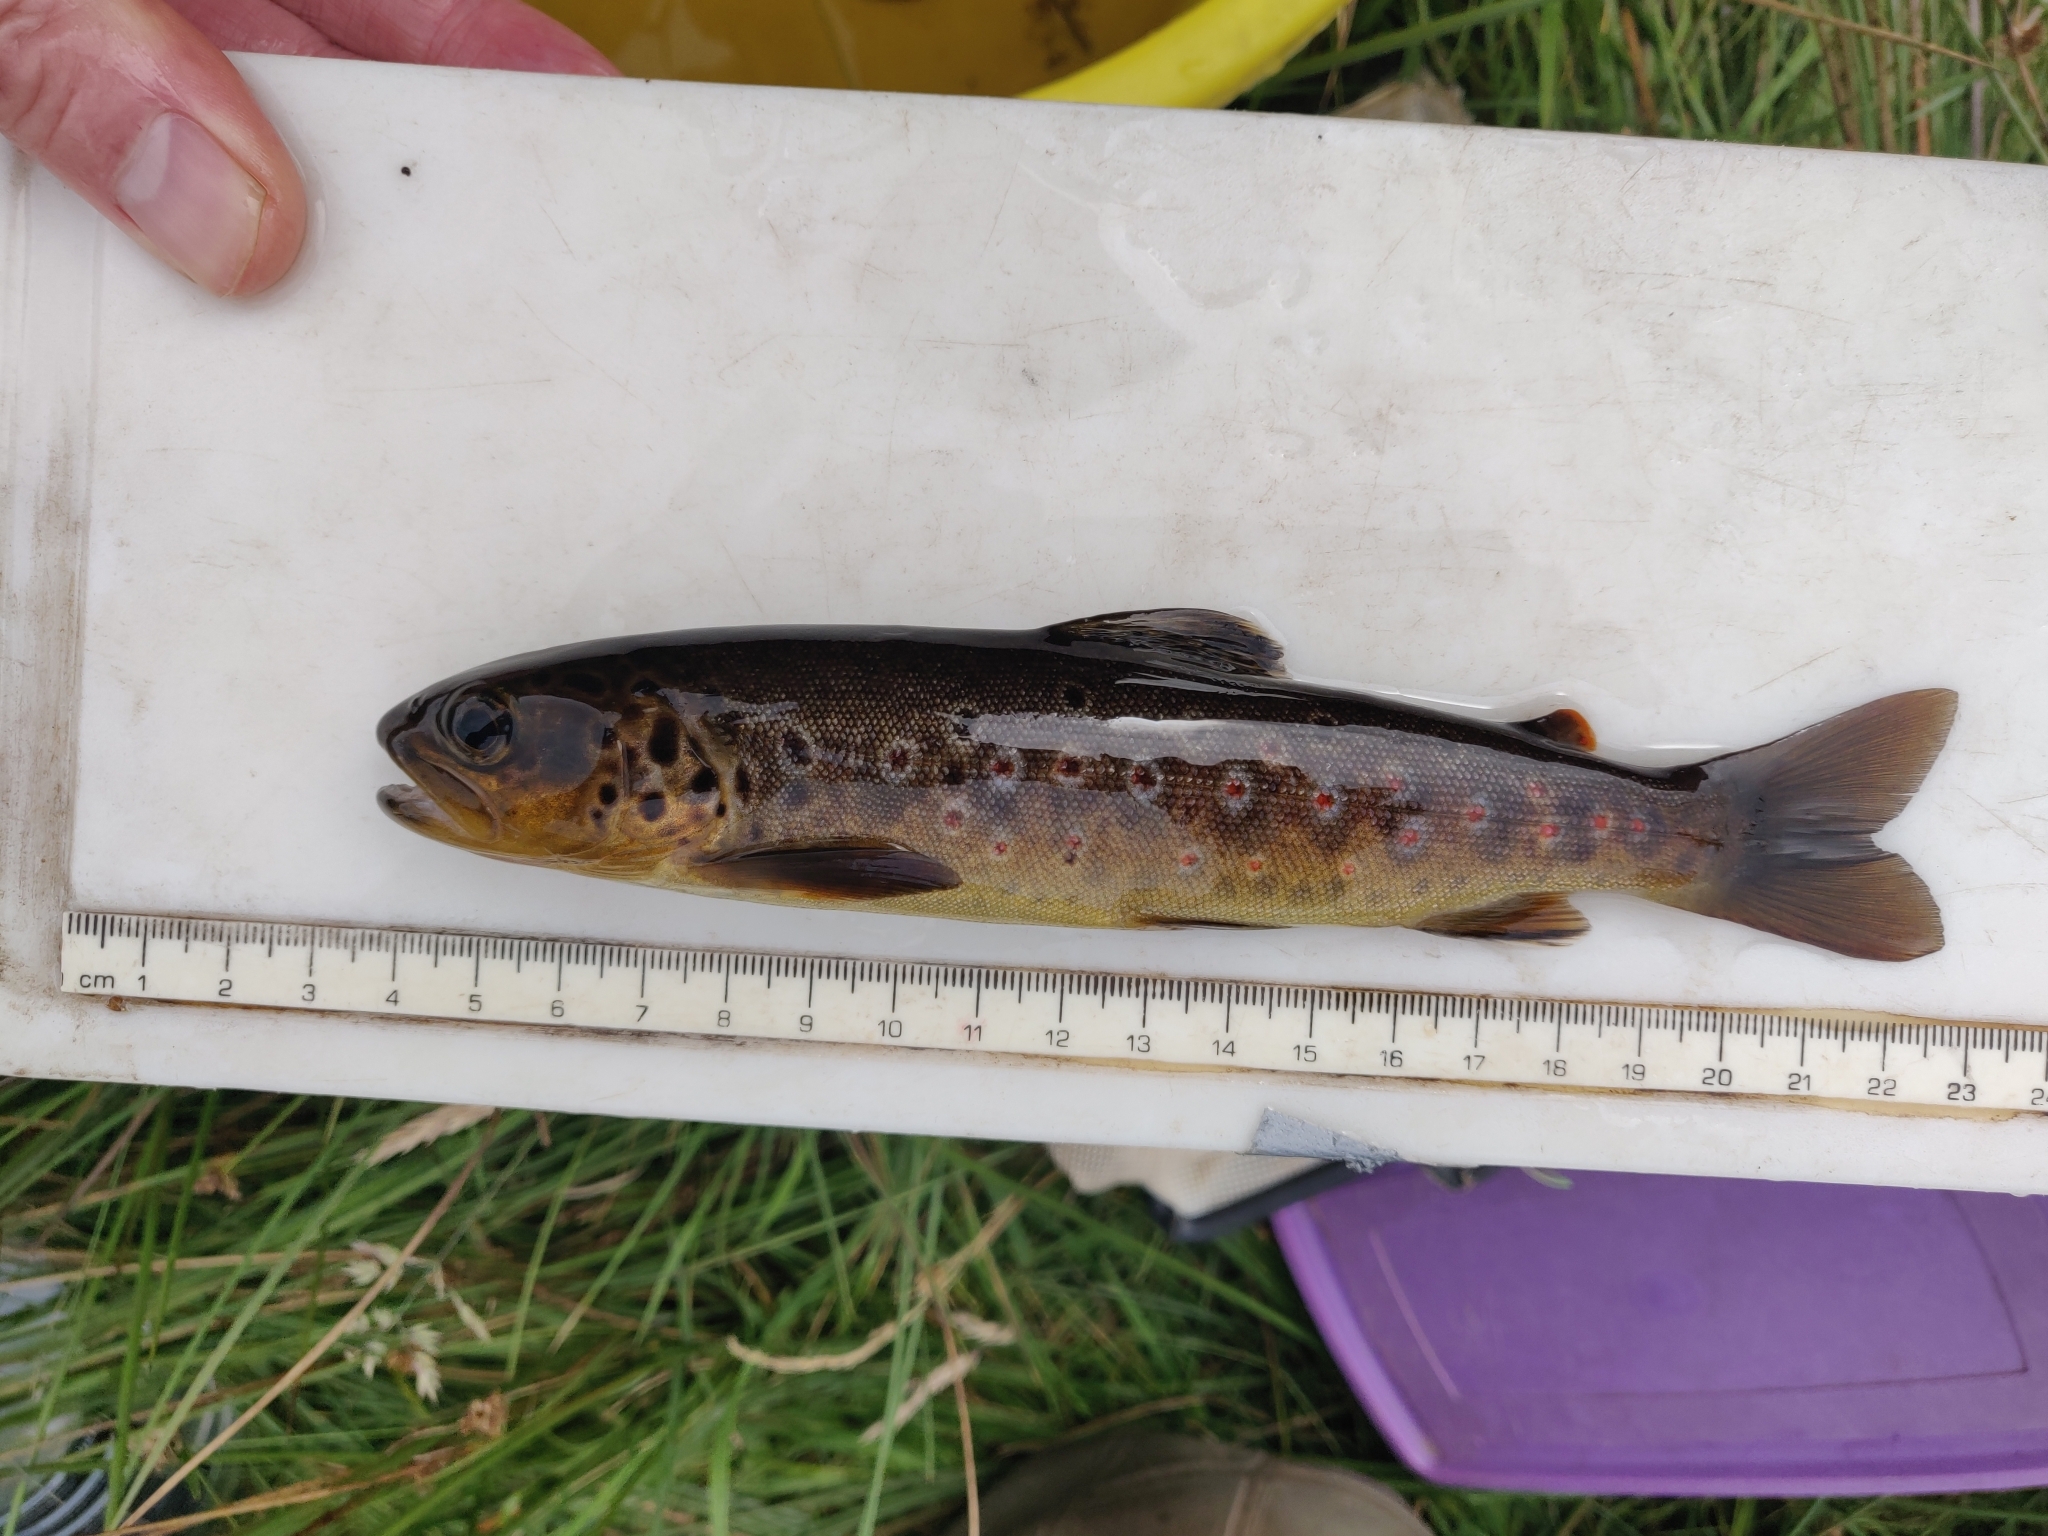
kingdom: Animalia
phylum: Chordata
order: Salmoniformes
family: Salmonidae
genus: Salmo
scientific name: Salmo trutta
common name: Brown trout
